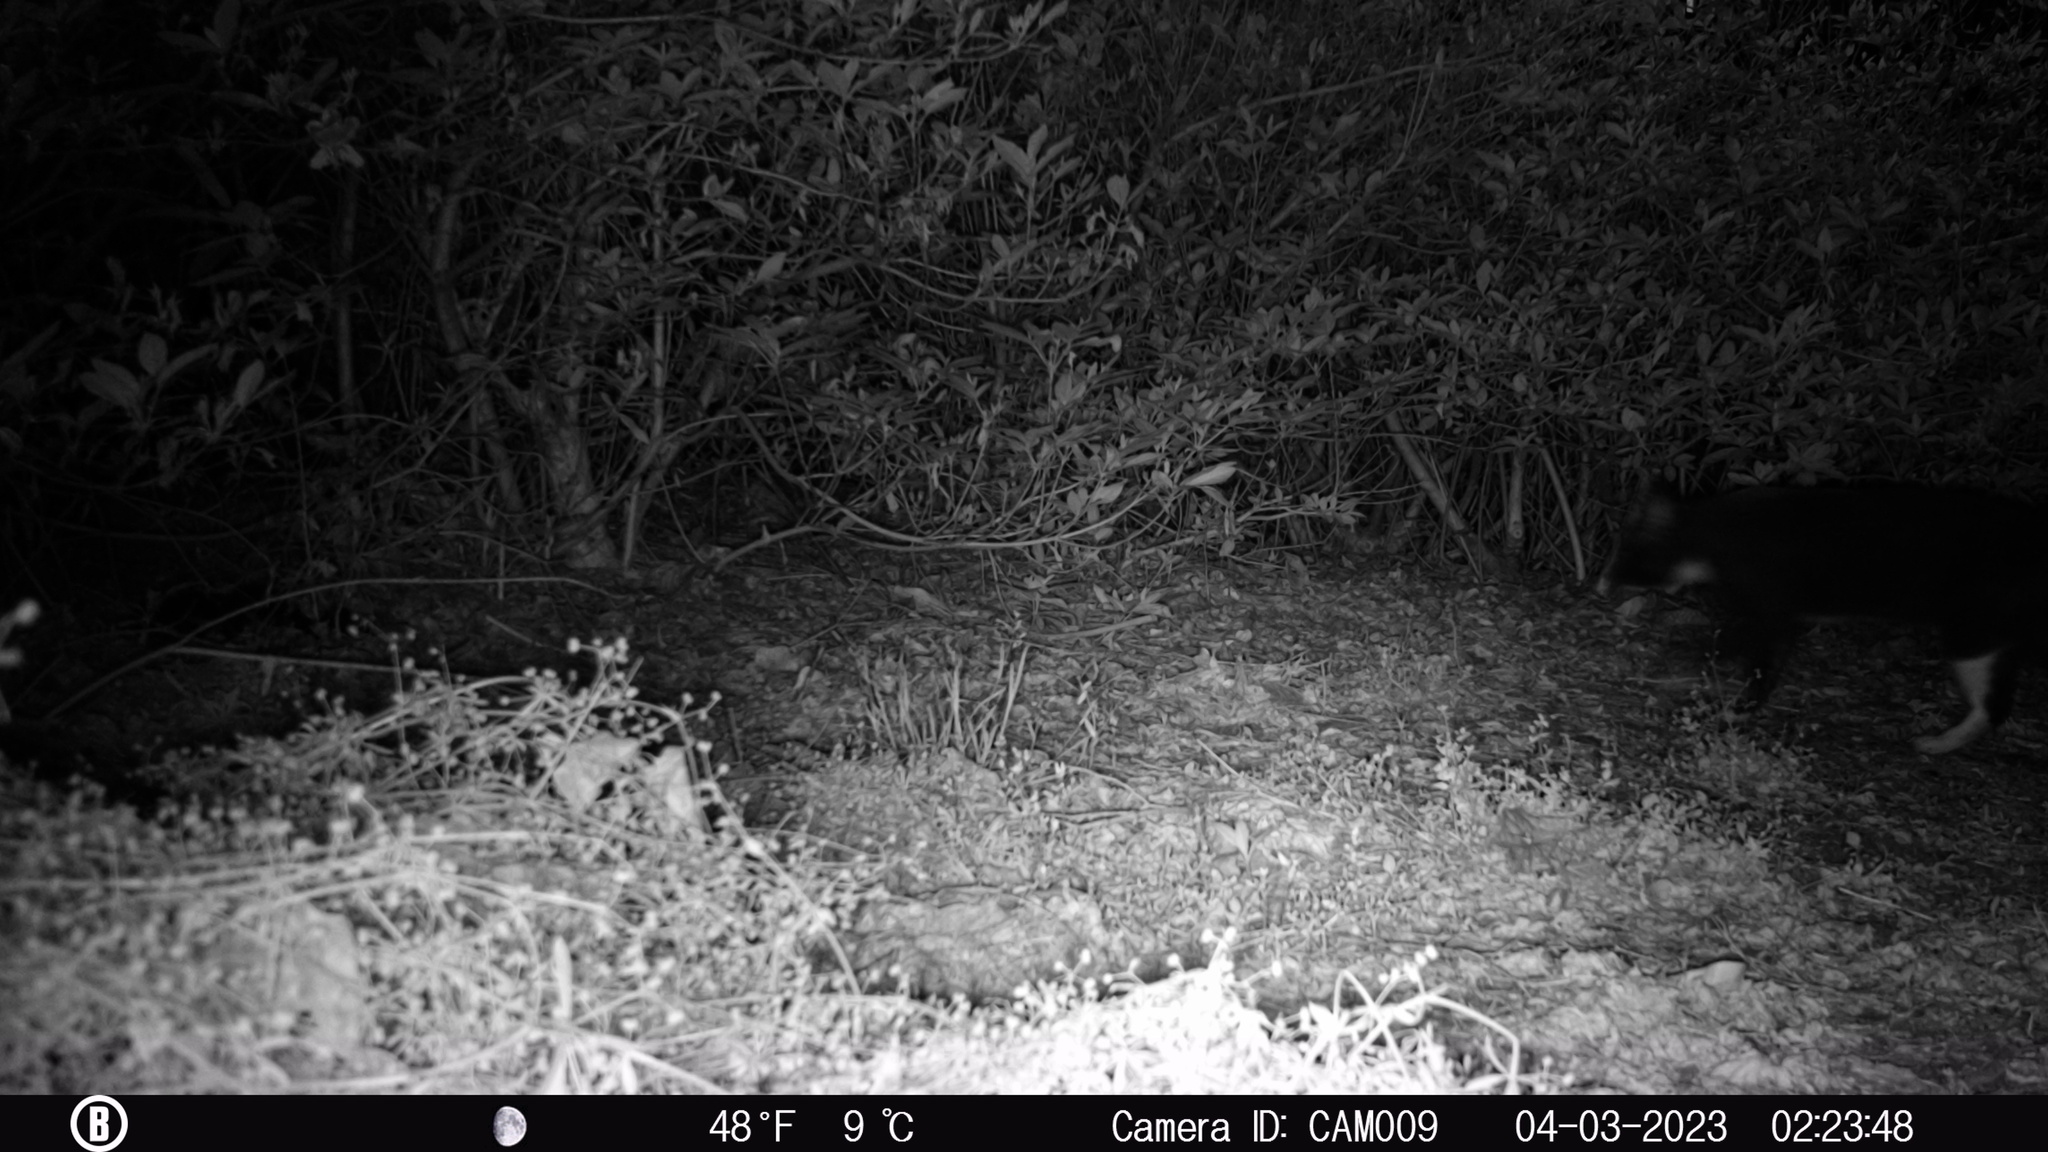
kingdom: Animalia
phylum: Chordata
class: Mammalia
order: Carnivora
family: Felidae
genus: Felis
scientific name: Felis catus
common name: Domestic cat
